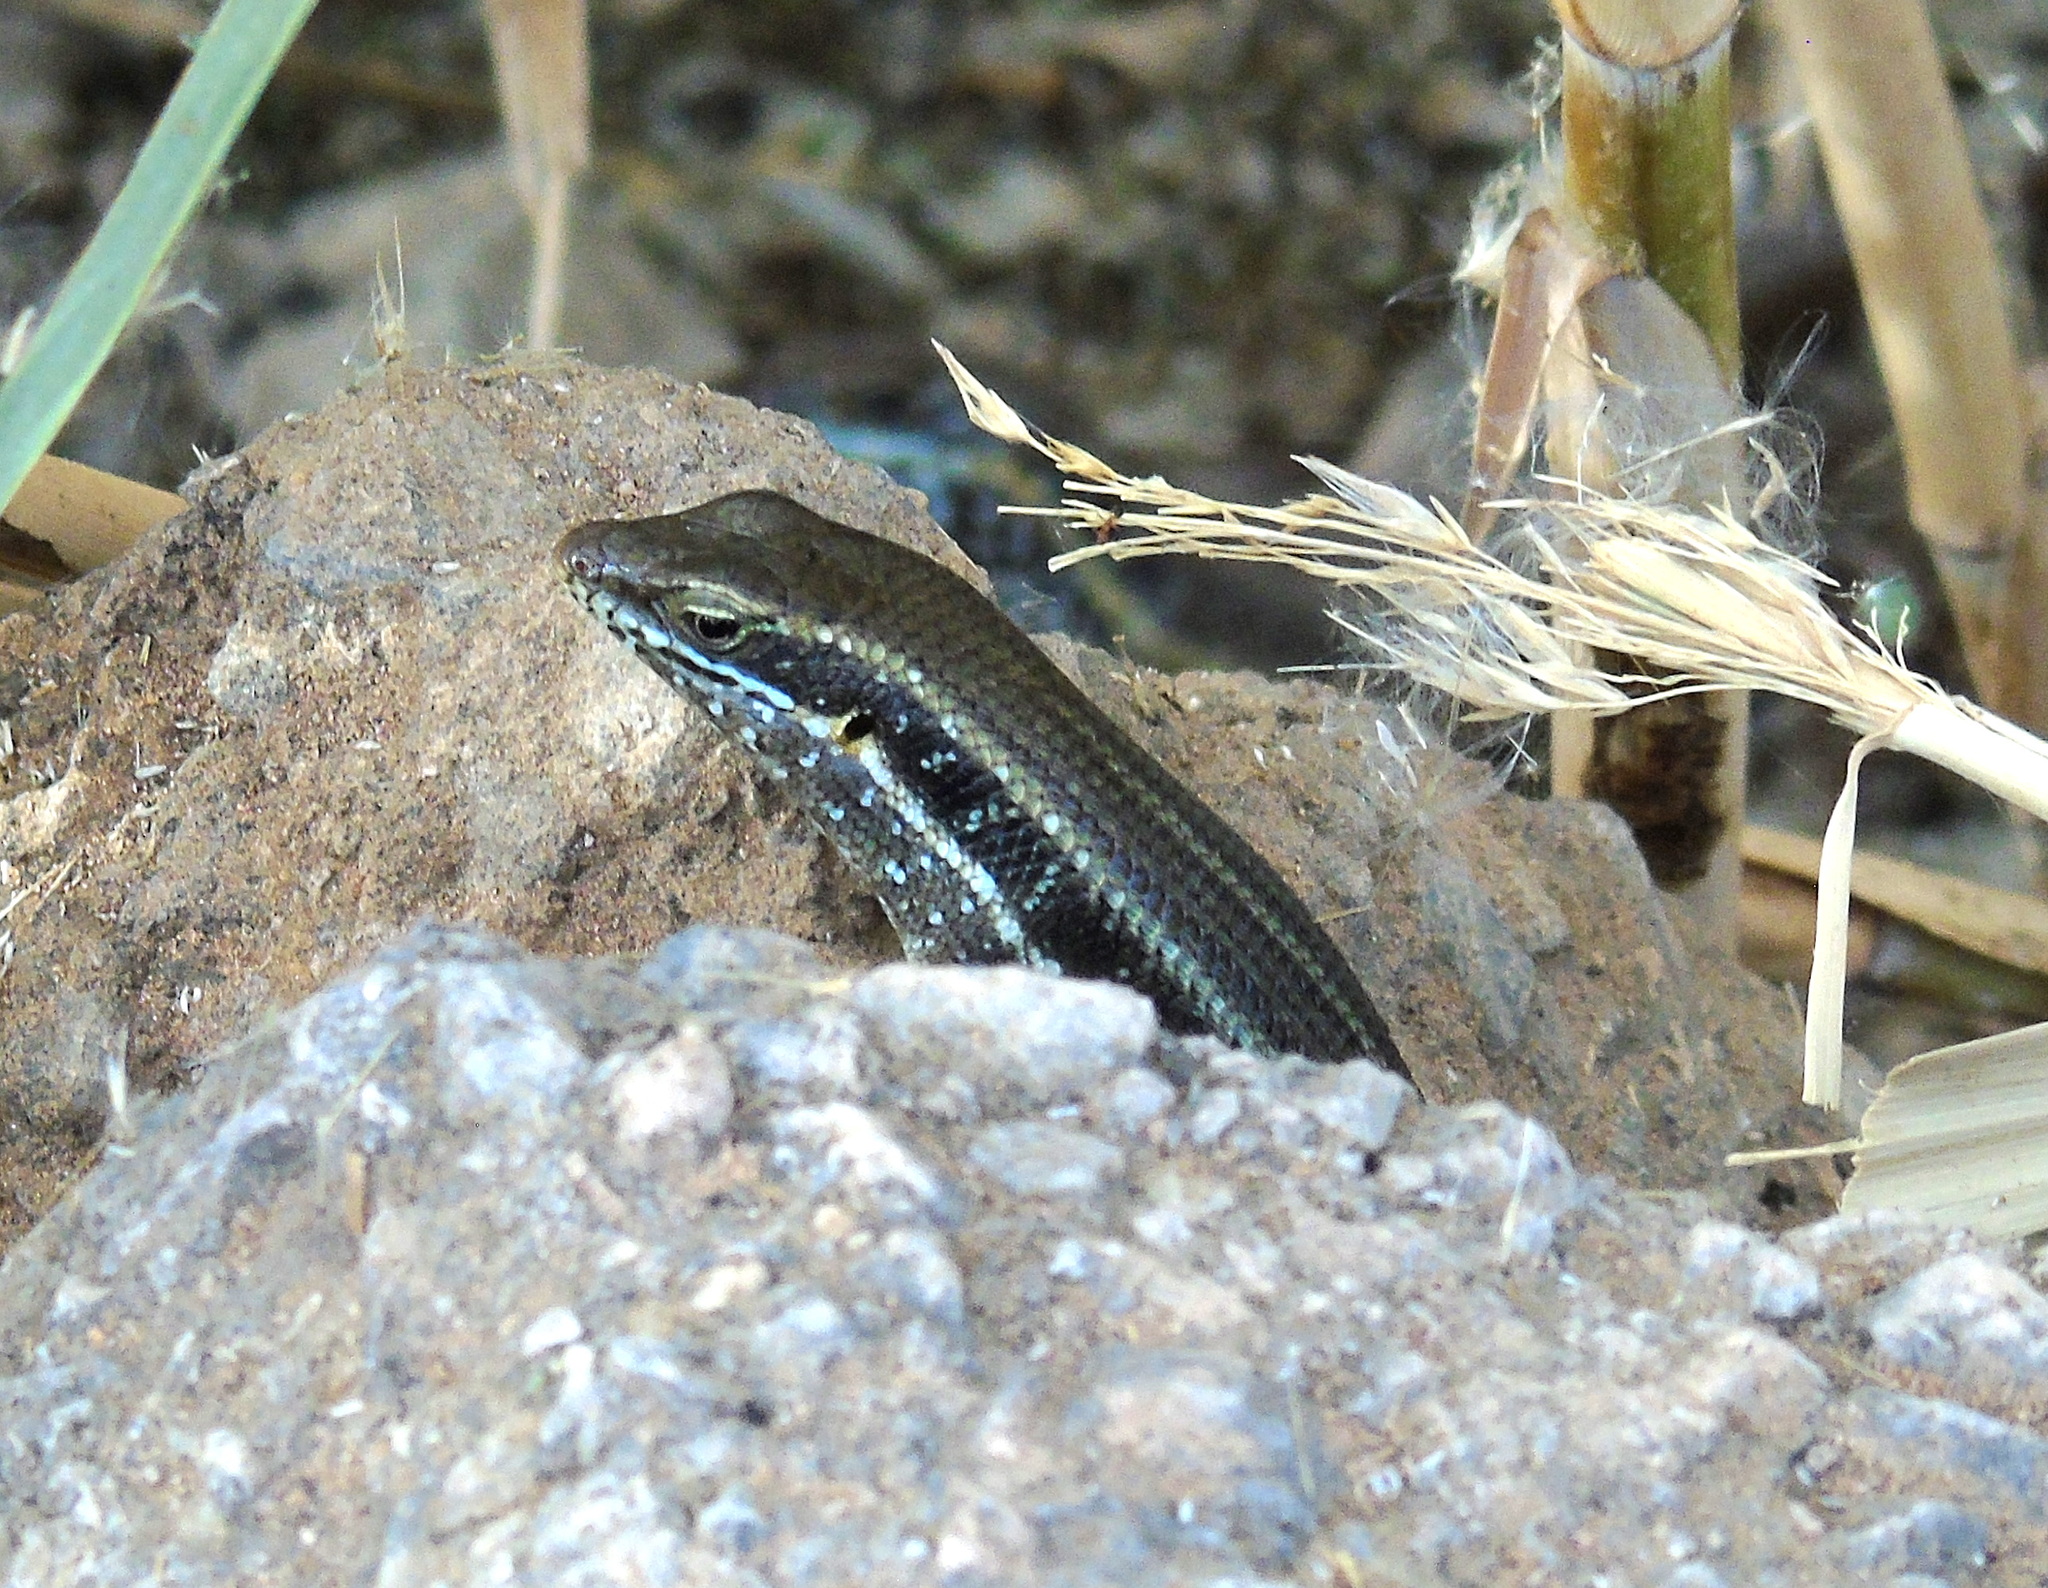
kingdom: Animalia
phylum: Chordata
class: Squamata
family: Scincidae
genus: Trachylepis
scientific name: Trachylepis quinquetaeniata
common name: African five-lined skink
